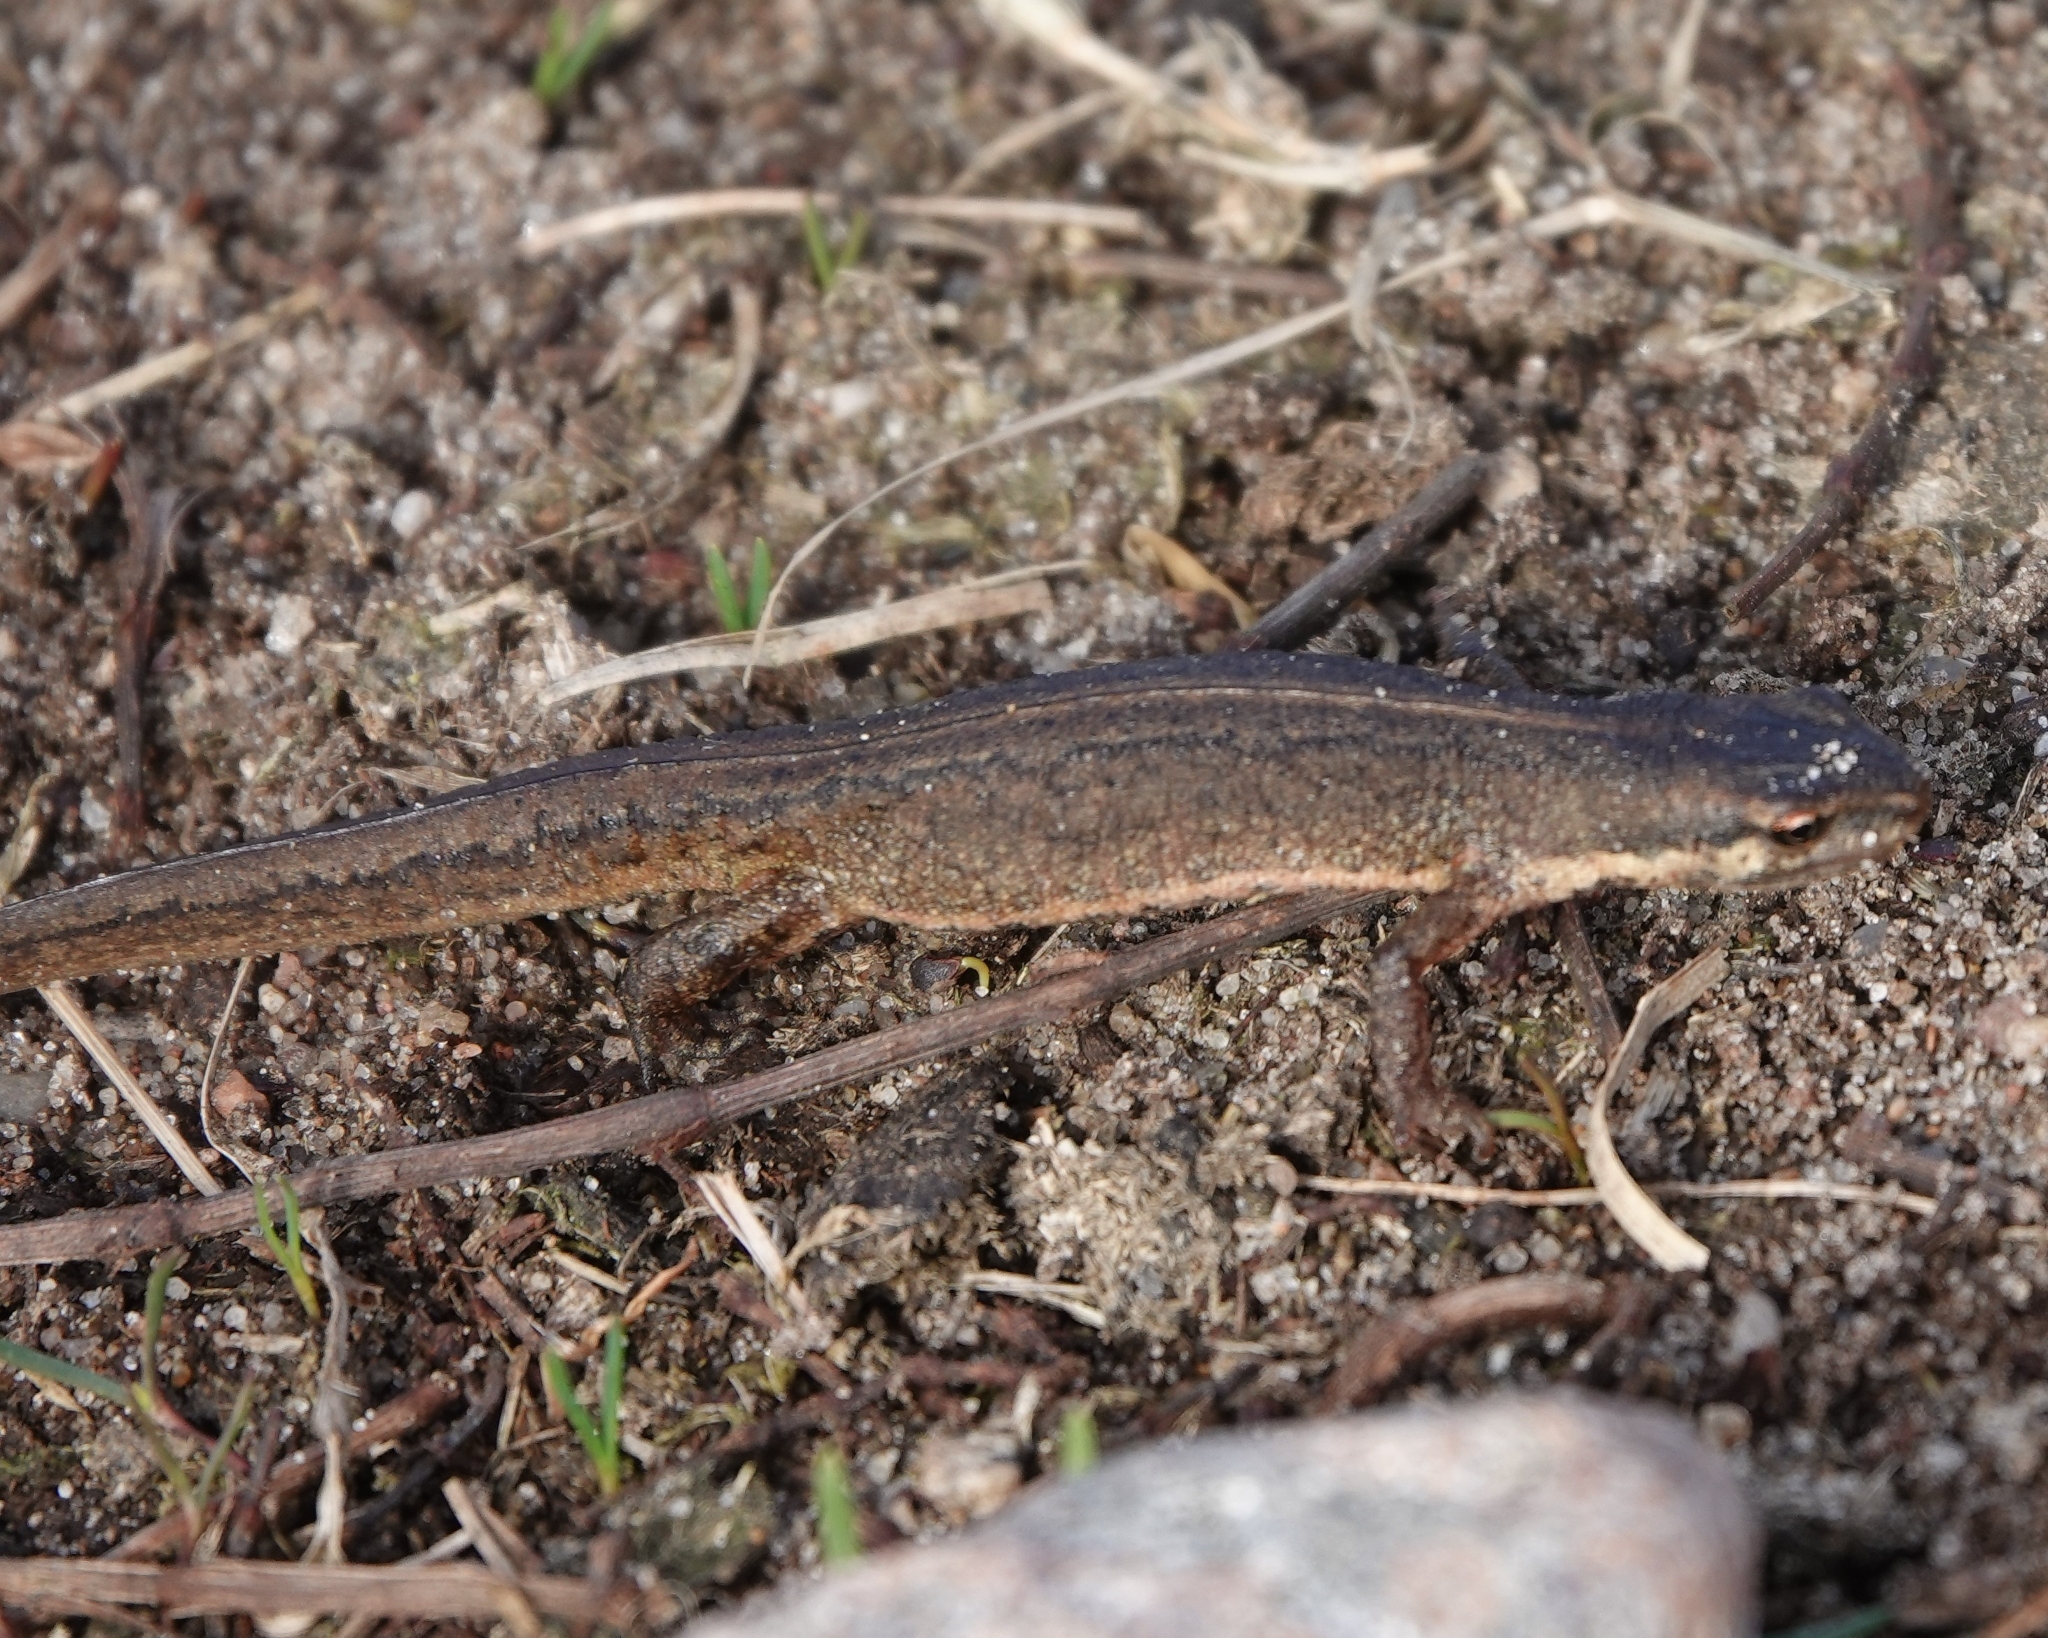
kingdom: Animalia
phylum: Chordata
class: Amphibia
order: Caudata
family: Salamandridae
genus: Lissotriton
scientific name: Lissotriton vulgaris
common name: Smooth newt
